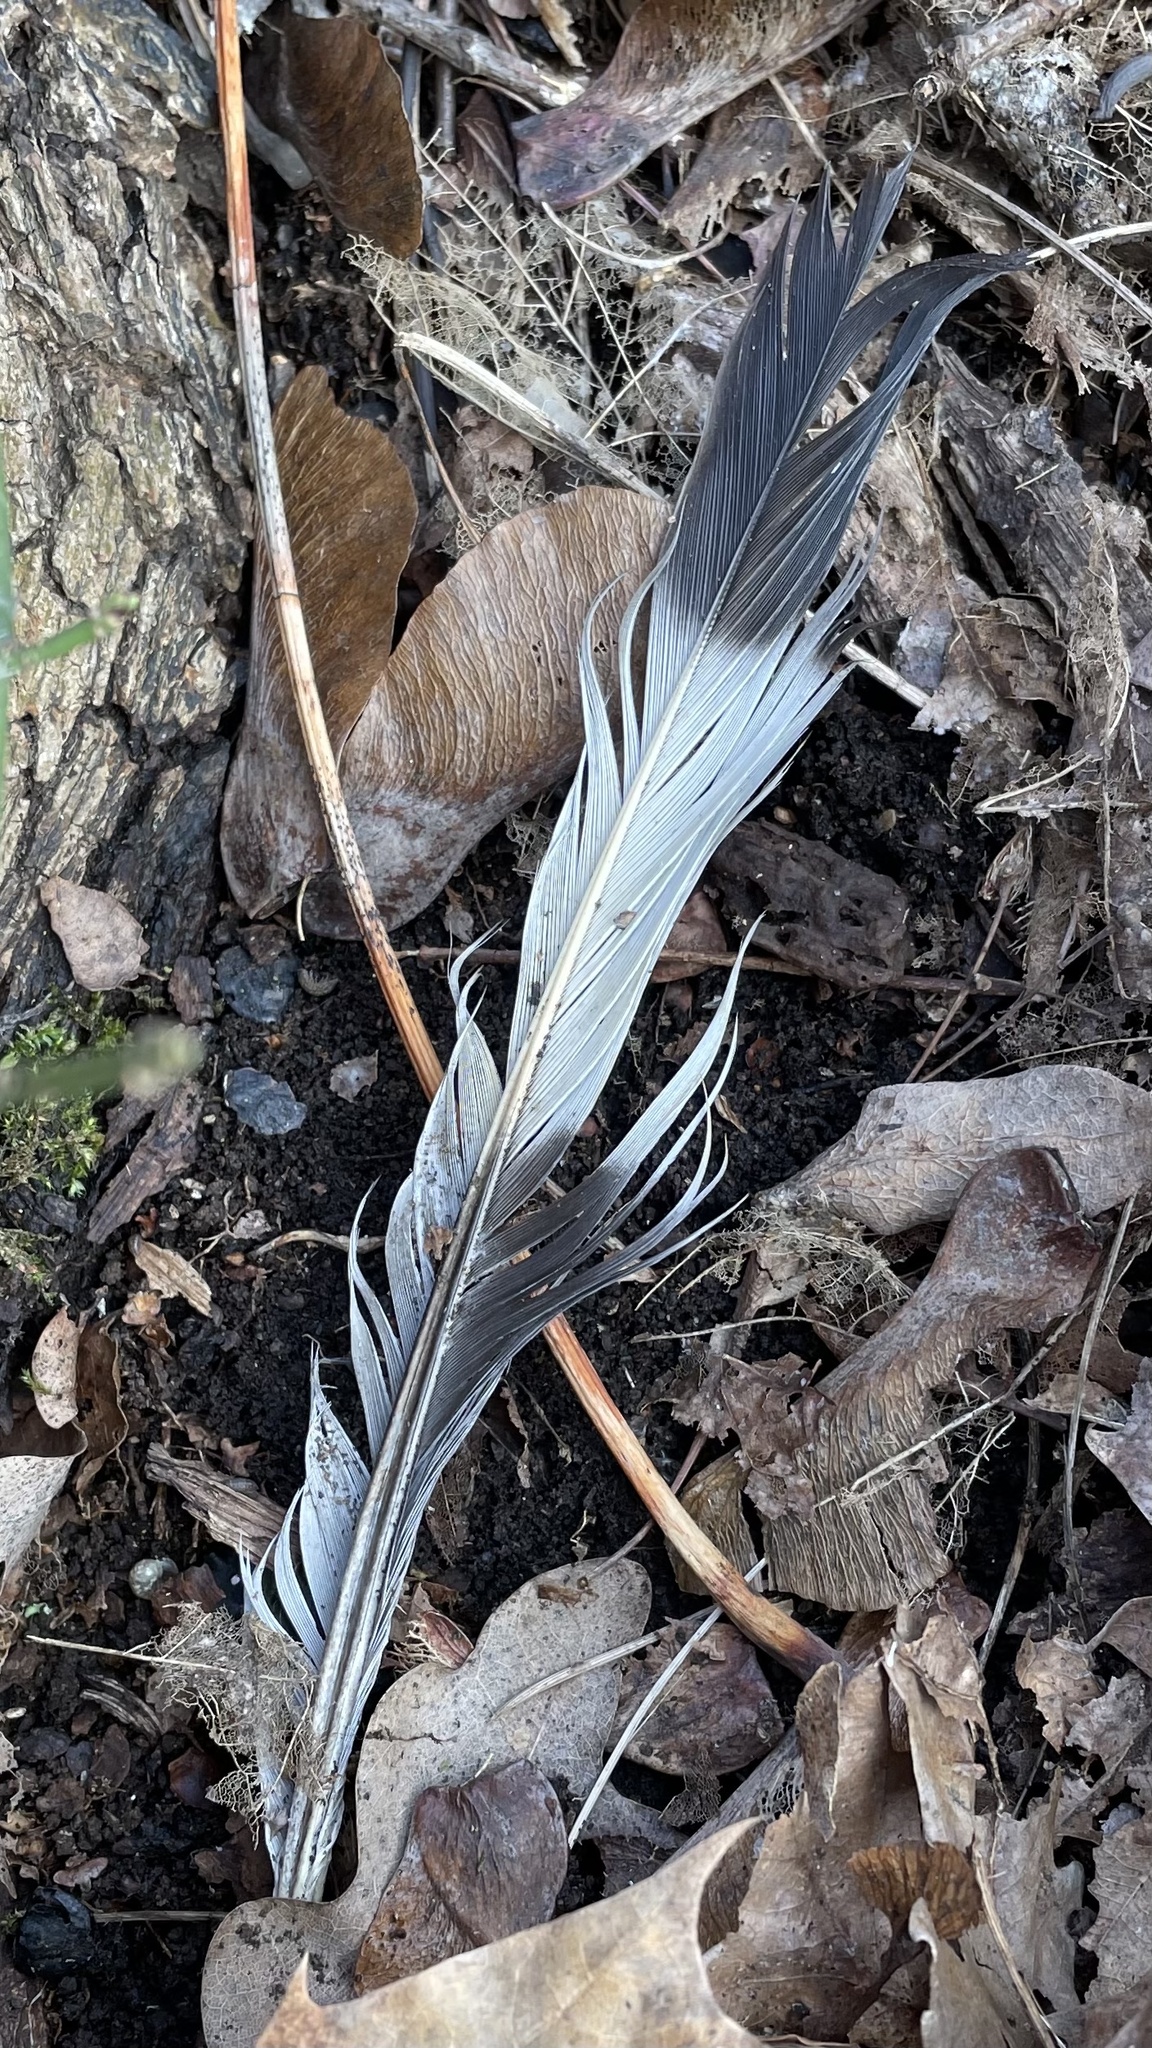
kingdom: Animalia
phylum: Chordata
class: Aves
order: Columbiformes
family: Columbidae
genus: Columba
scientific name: Columba palumbus
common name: Common wood pigeon
